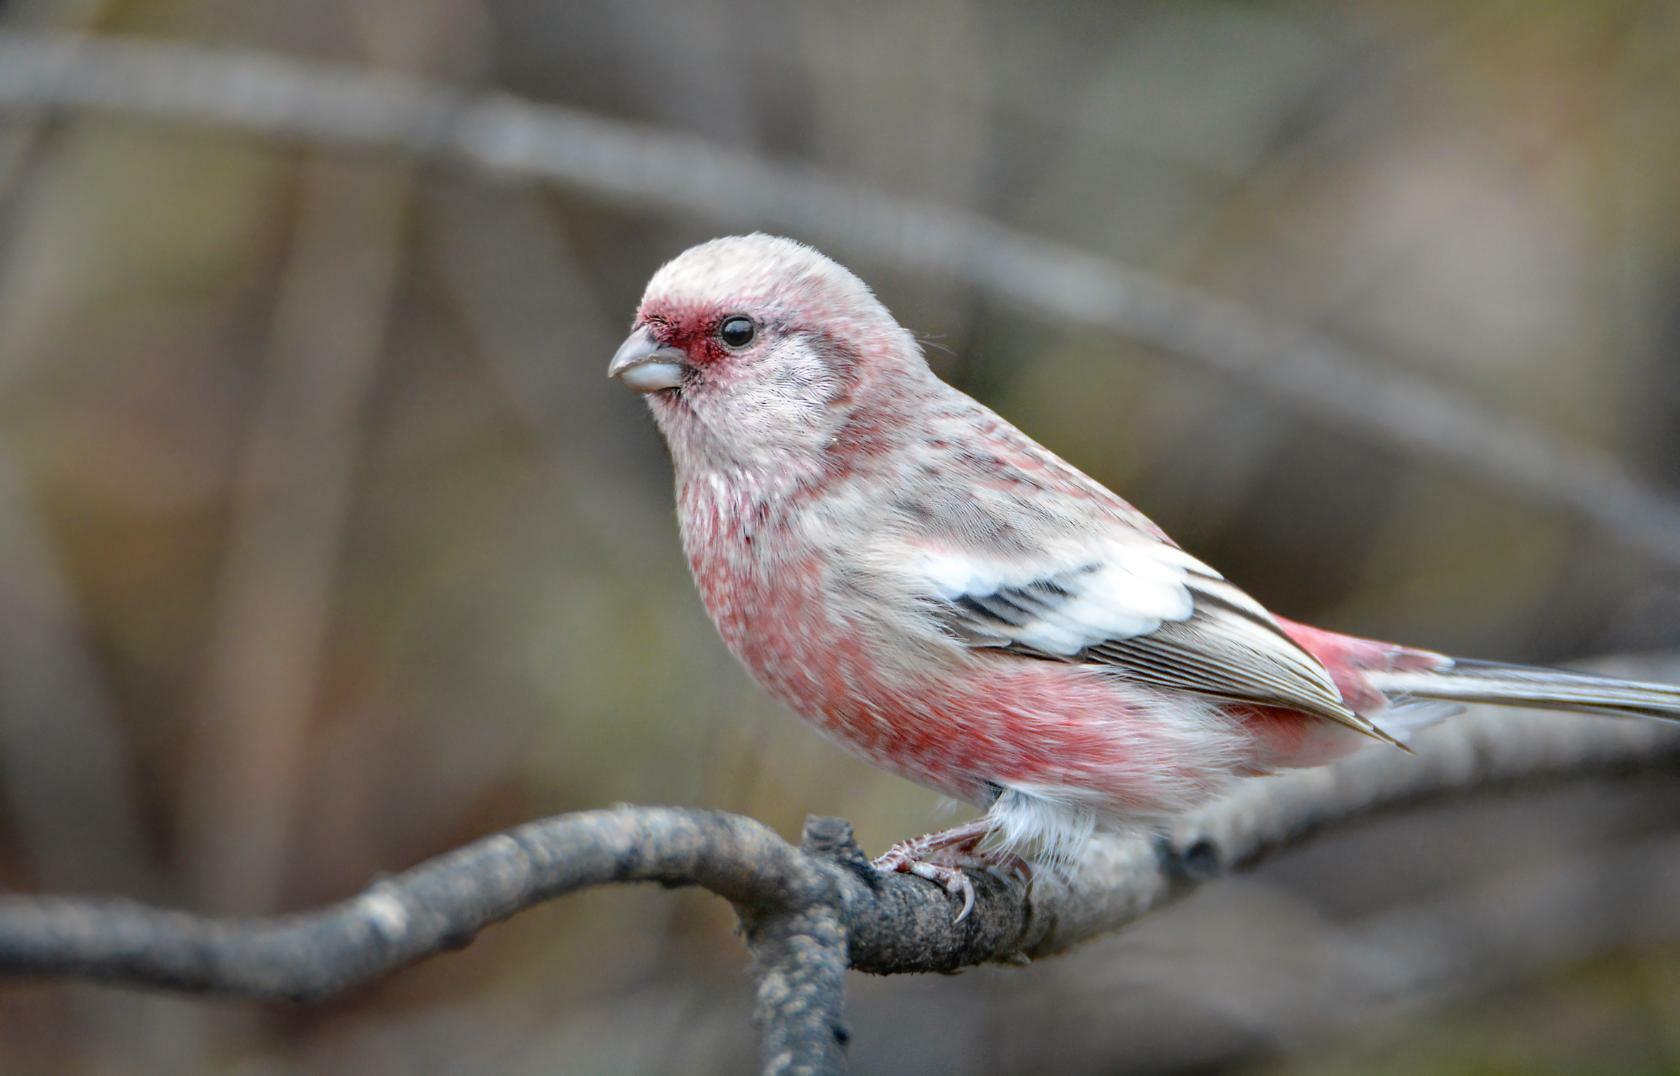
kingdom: Animalia
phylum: Chordata
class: Aves
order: Passeriformes
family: Fringillidae
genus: Carpodacus
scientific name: Carpodacus sibiricus
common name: Long-tailed rosefinch
